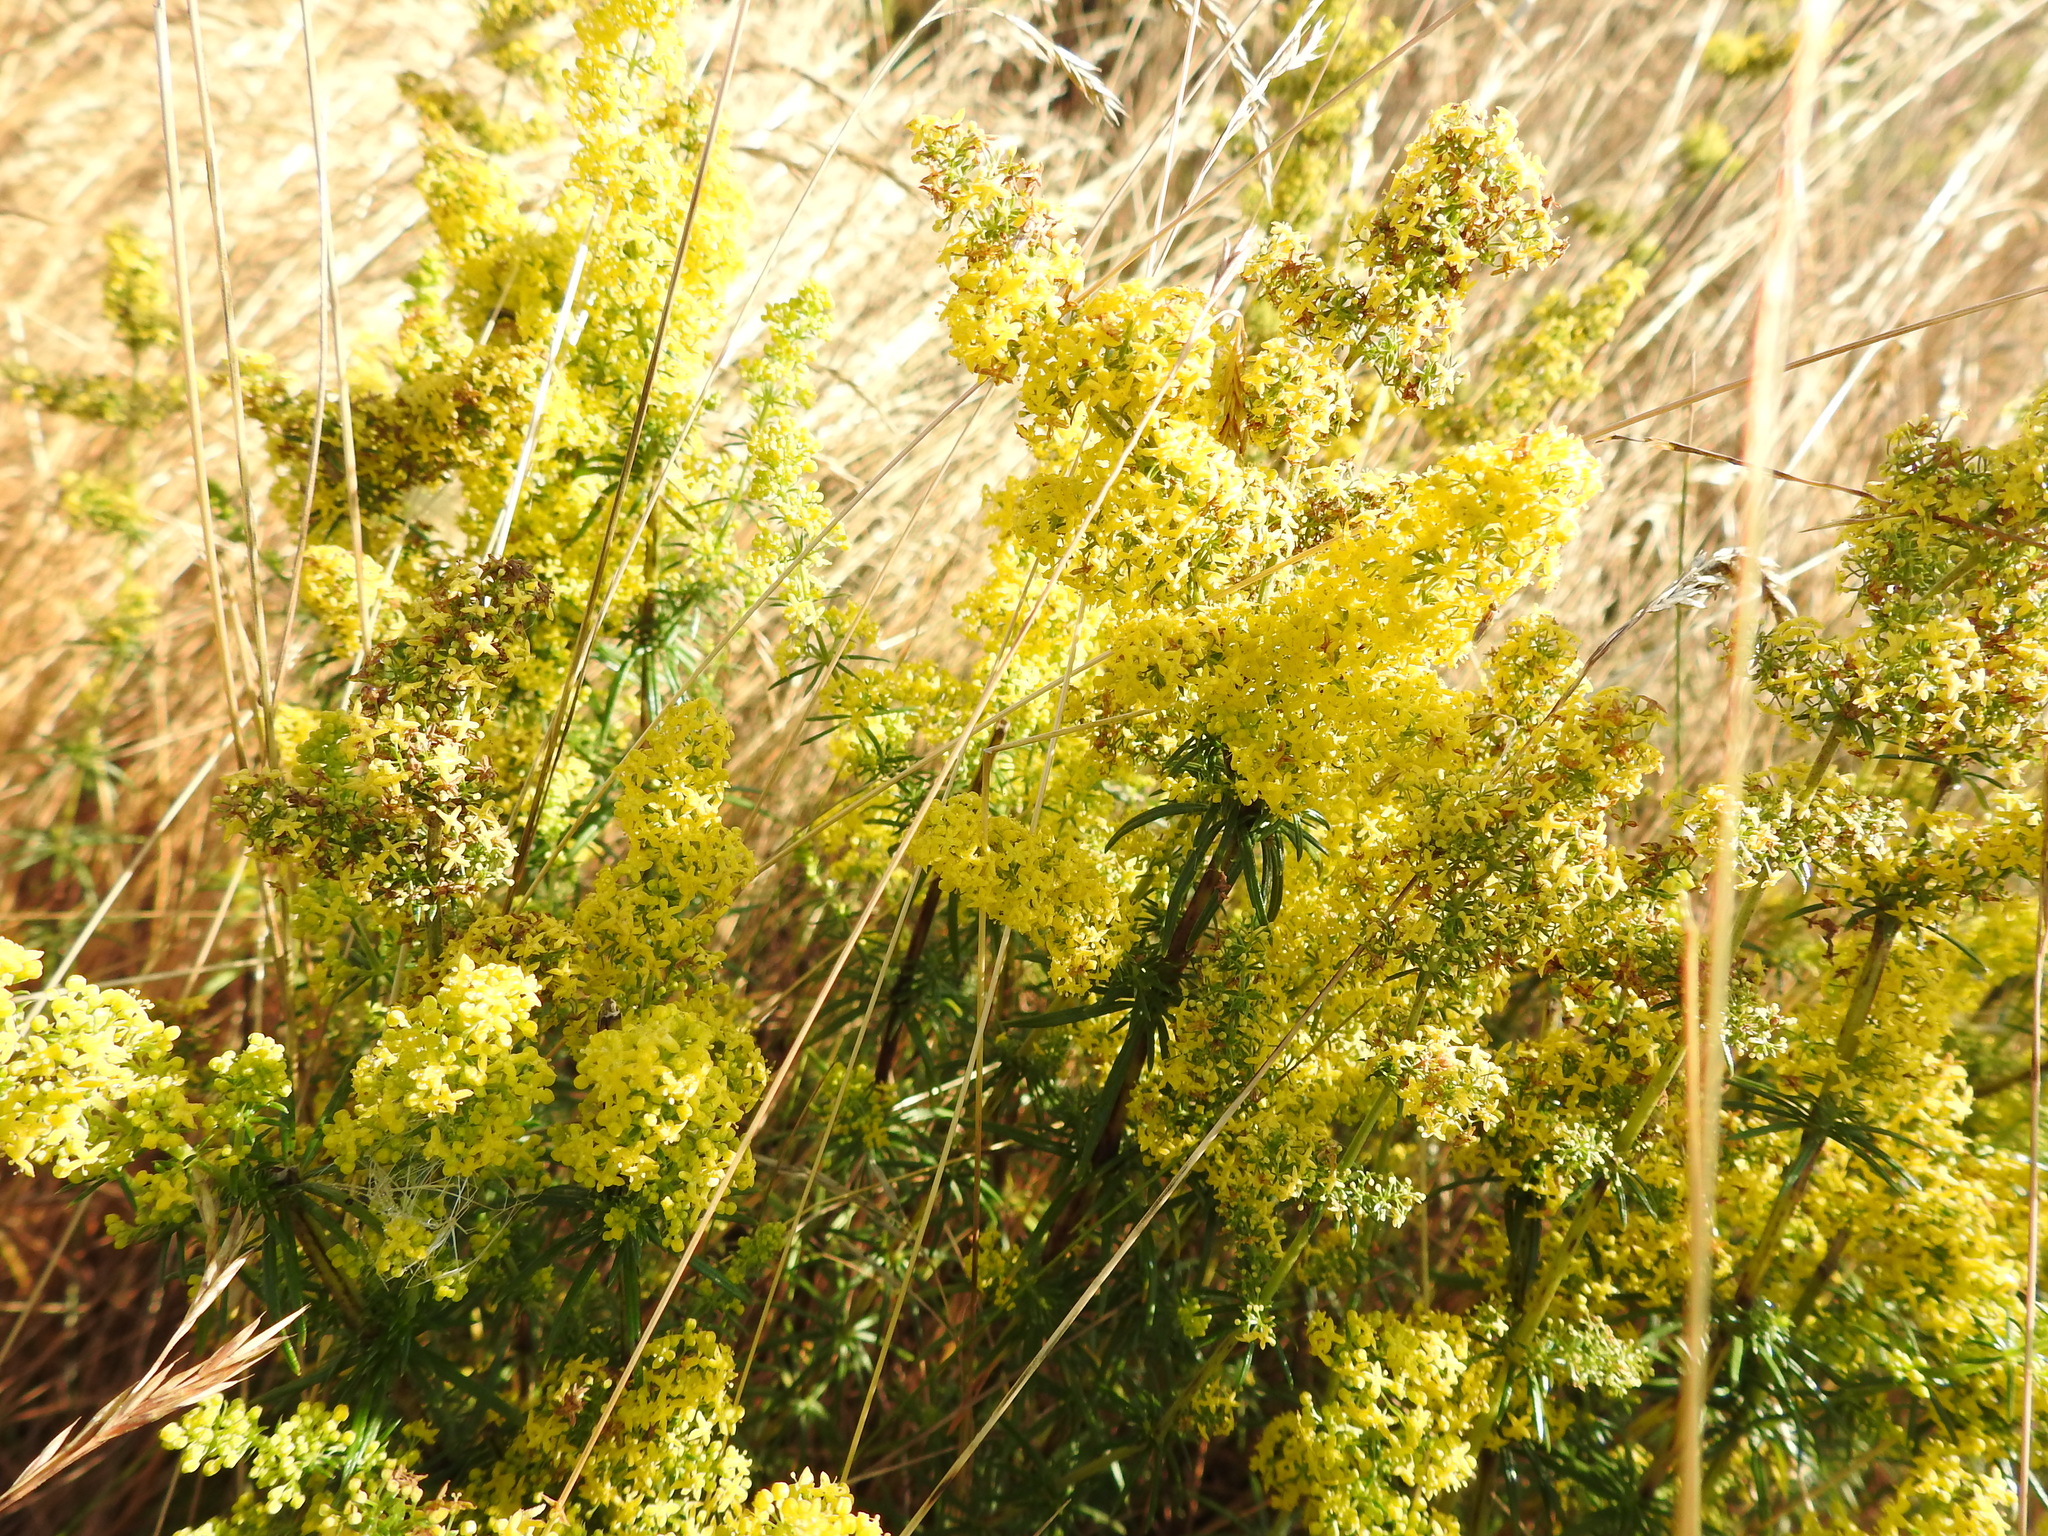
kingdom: Plantae
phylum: Tracheophyta
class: Magnoliopsida
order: Gentianales
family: Rubiaceae
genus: Galium
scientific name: Galium verum
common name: Lady's bedstraw
